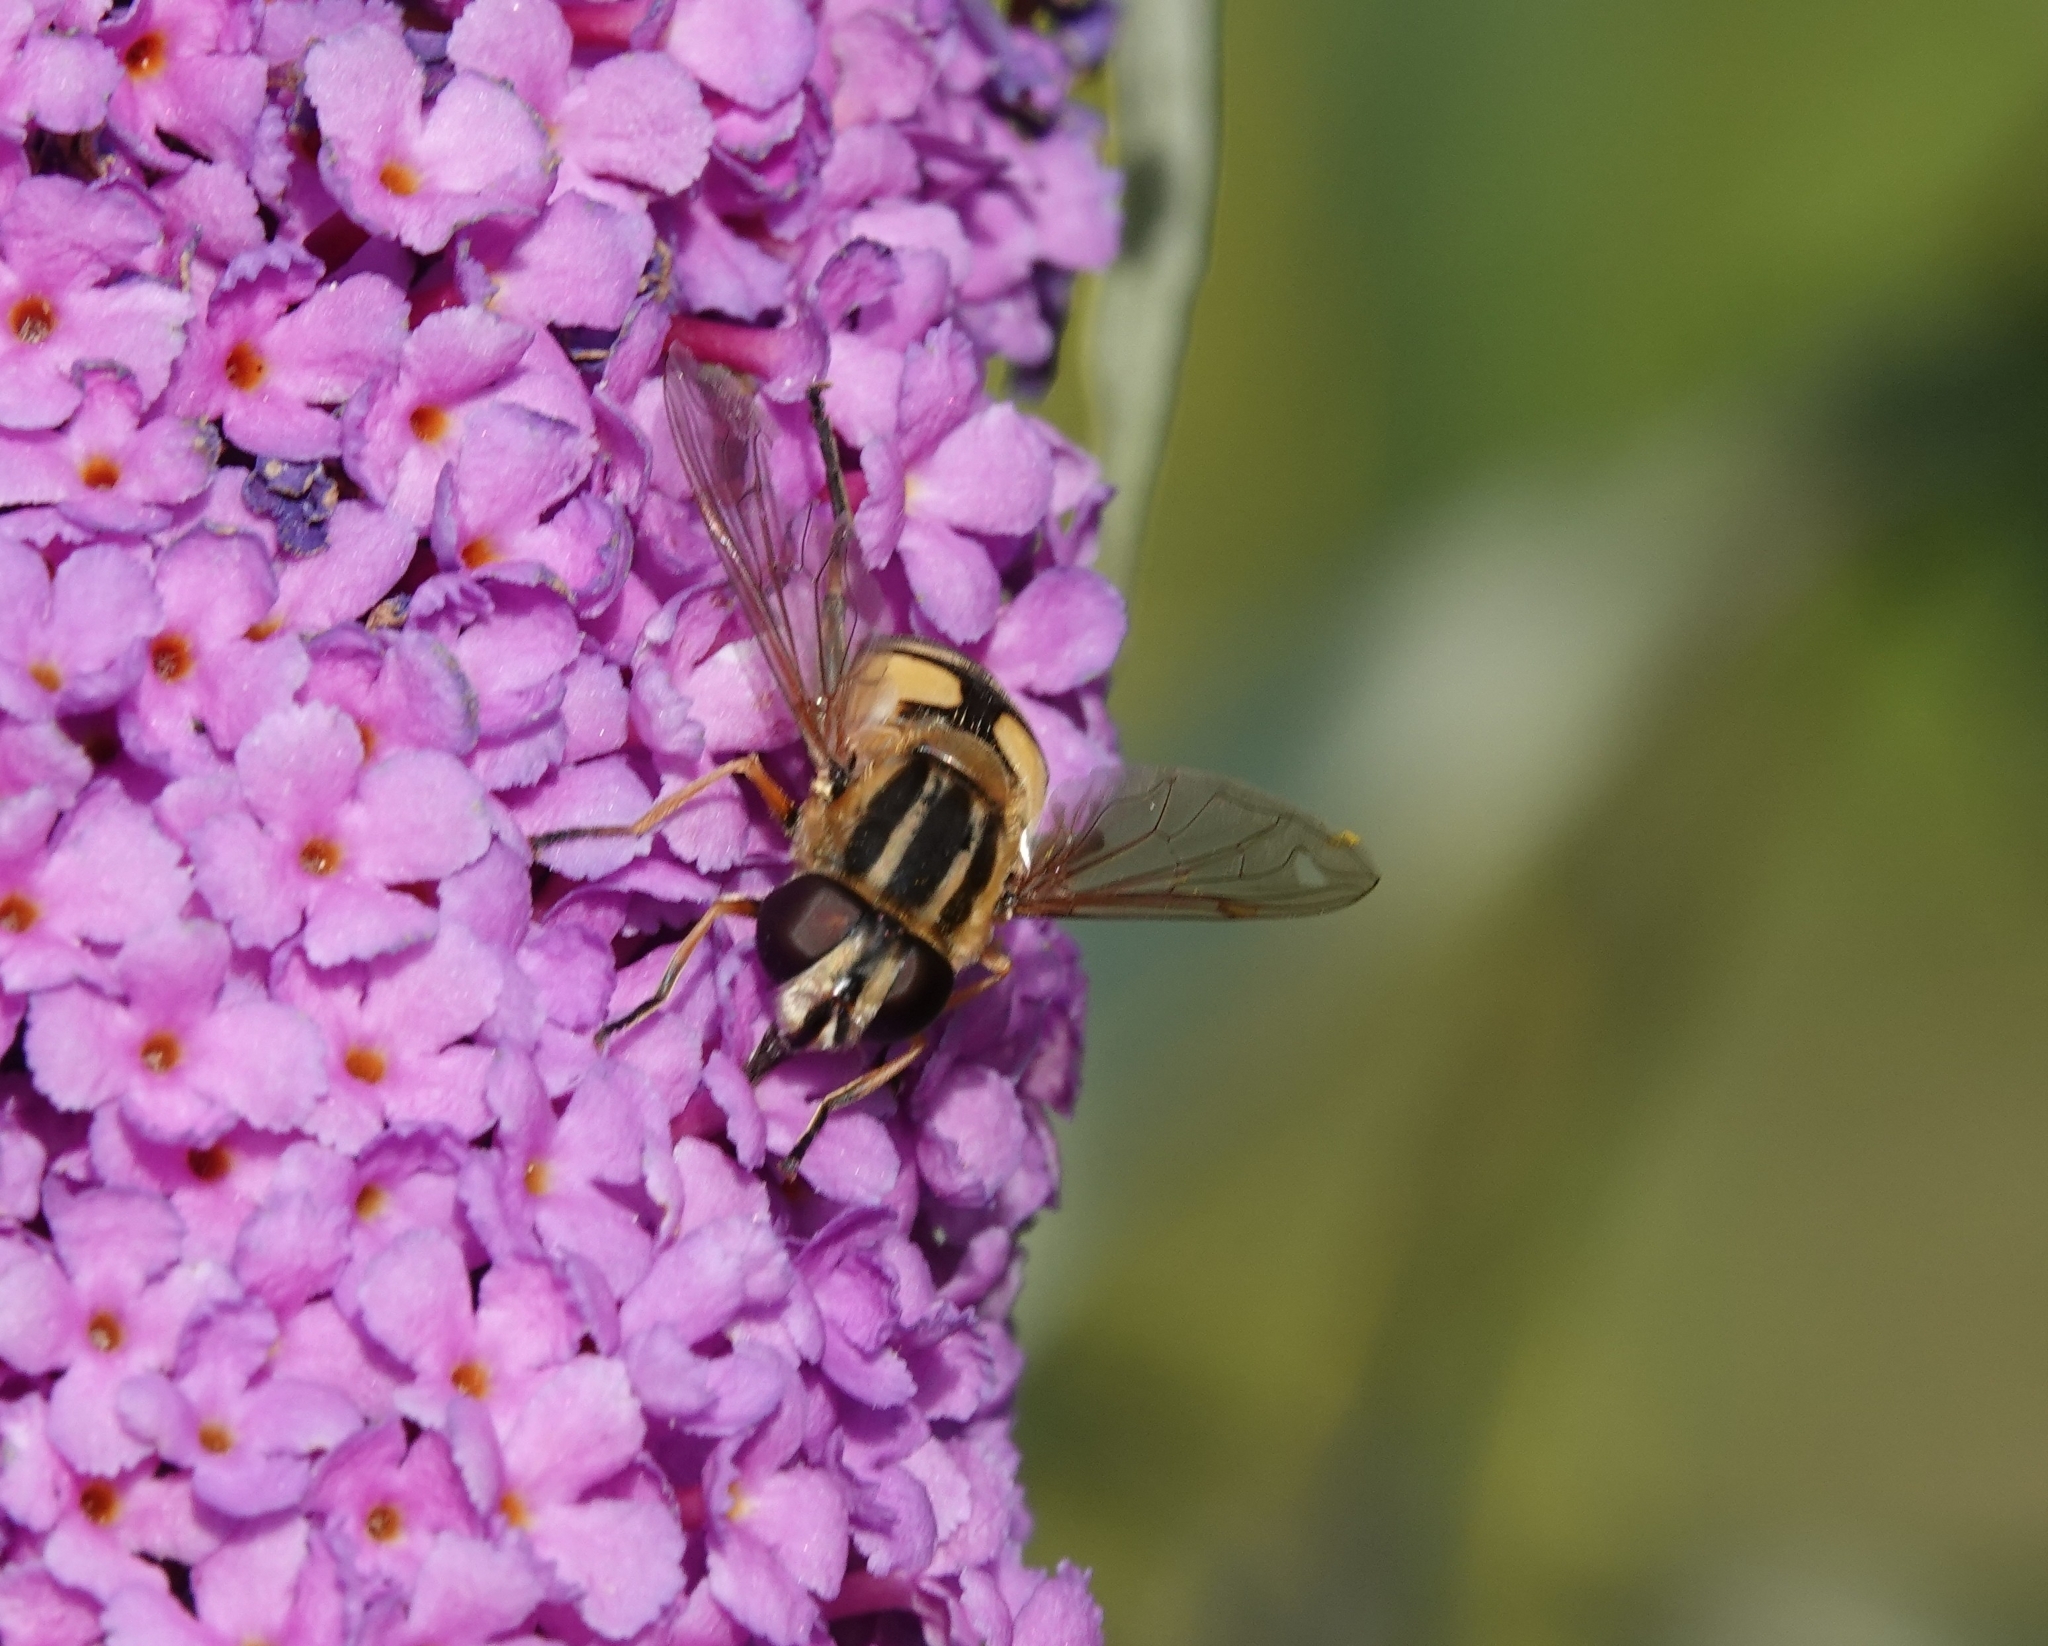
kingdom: Animalia
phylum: Arthropoda
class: Insecta
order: Diptera
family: Syrphidae
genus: Helophilus
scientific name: Helophilus pendulus
